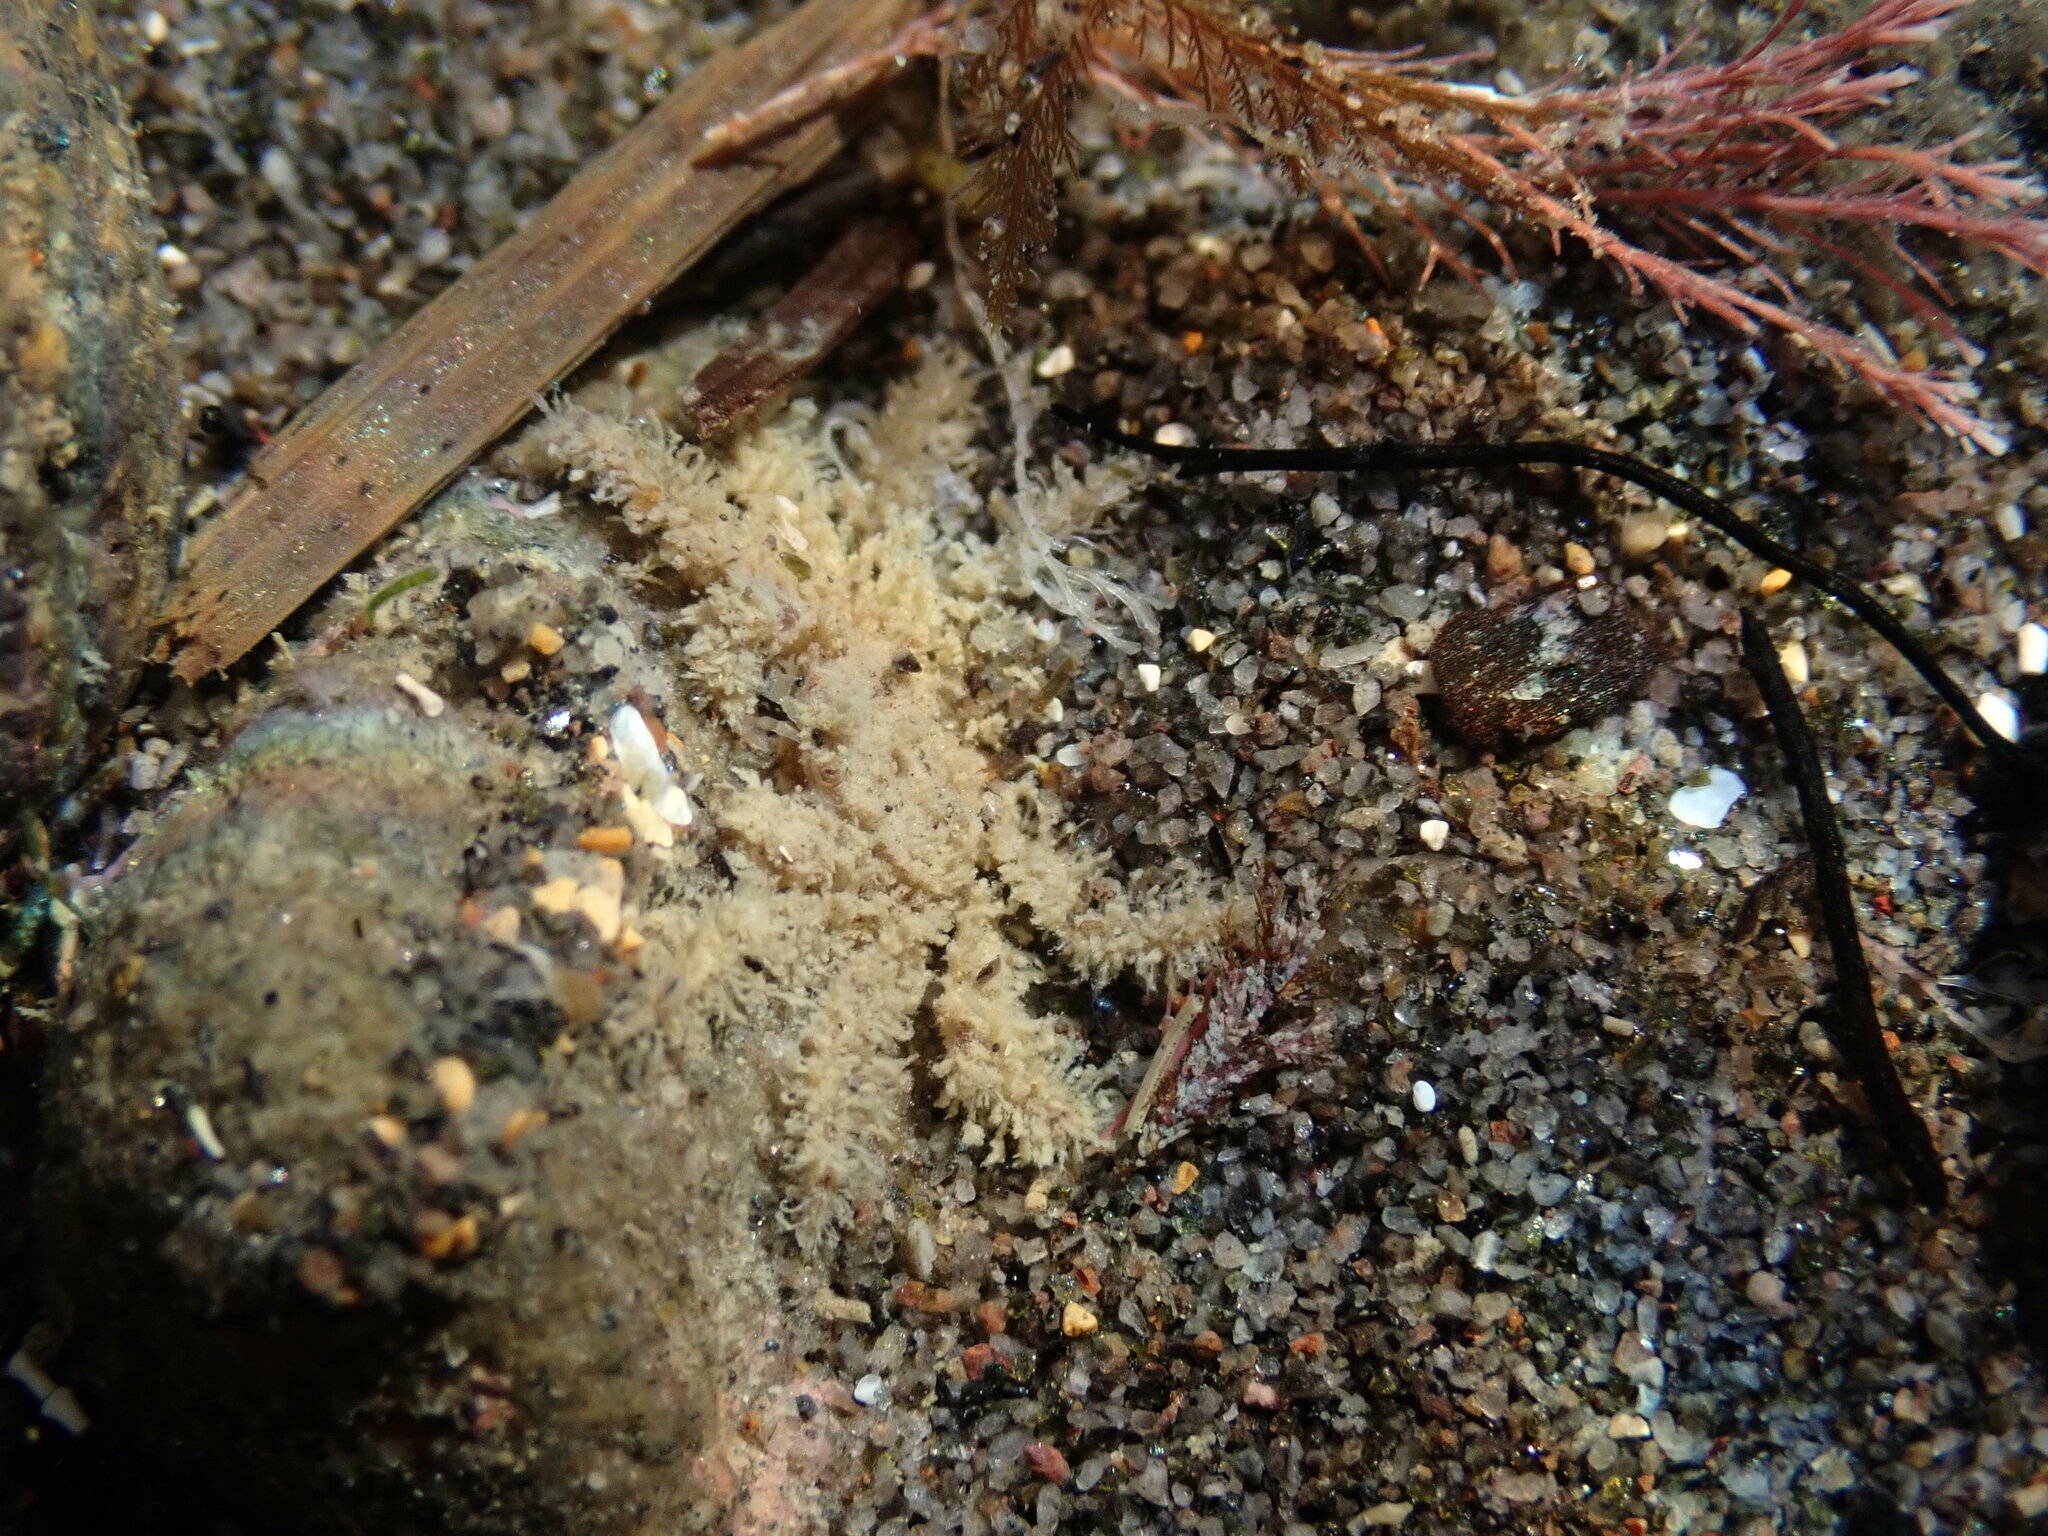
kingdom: Animalia
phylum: Arthropoda
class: Malacostraca
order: Decapoda
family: Hymenosomatidae
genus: Neohymenicus
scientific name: Neohymenicus pubescens
